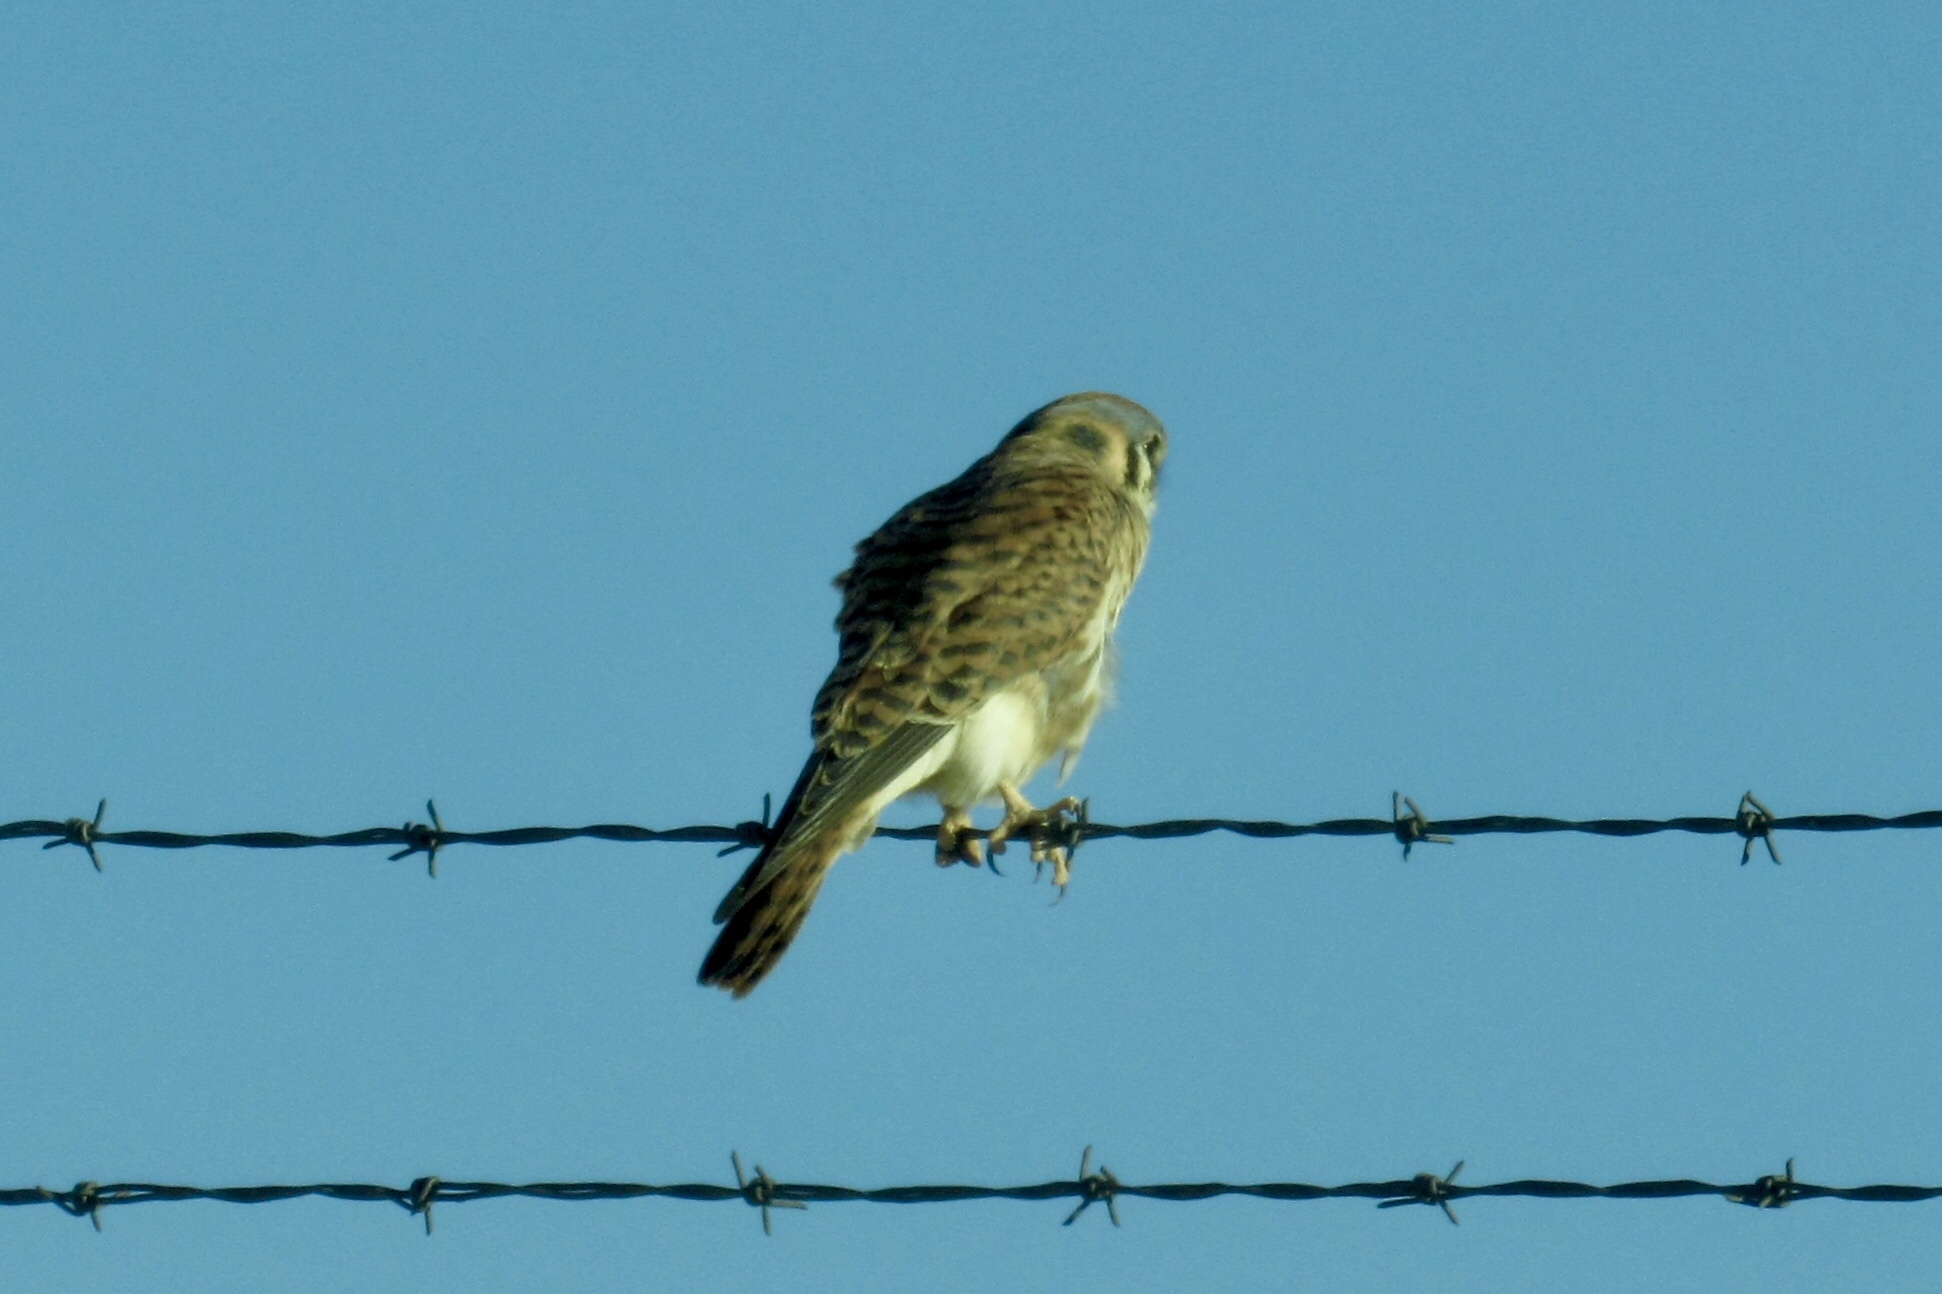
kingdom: Animalia
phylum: Chordata
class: Aves
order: Falconiformes
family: Falconidae
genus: Falco
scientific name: Falco sparverius
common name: American kestrel
